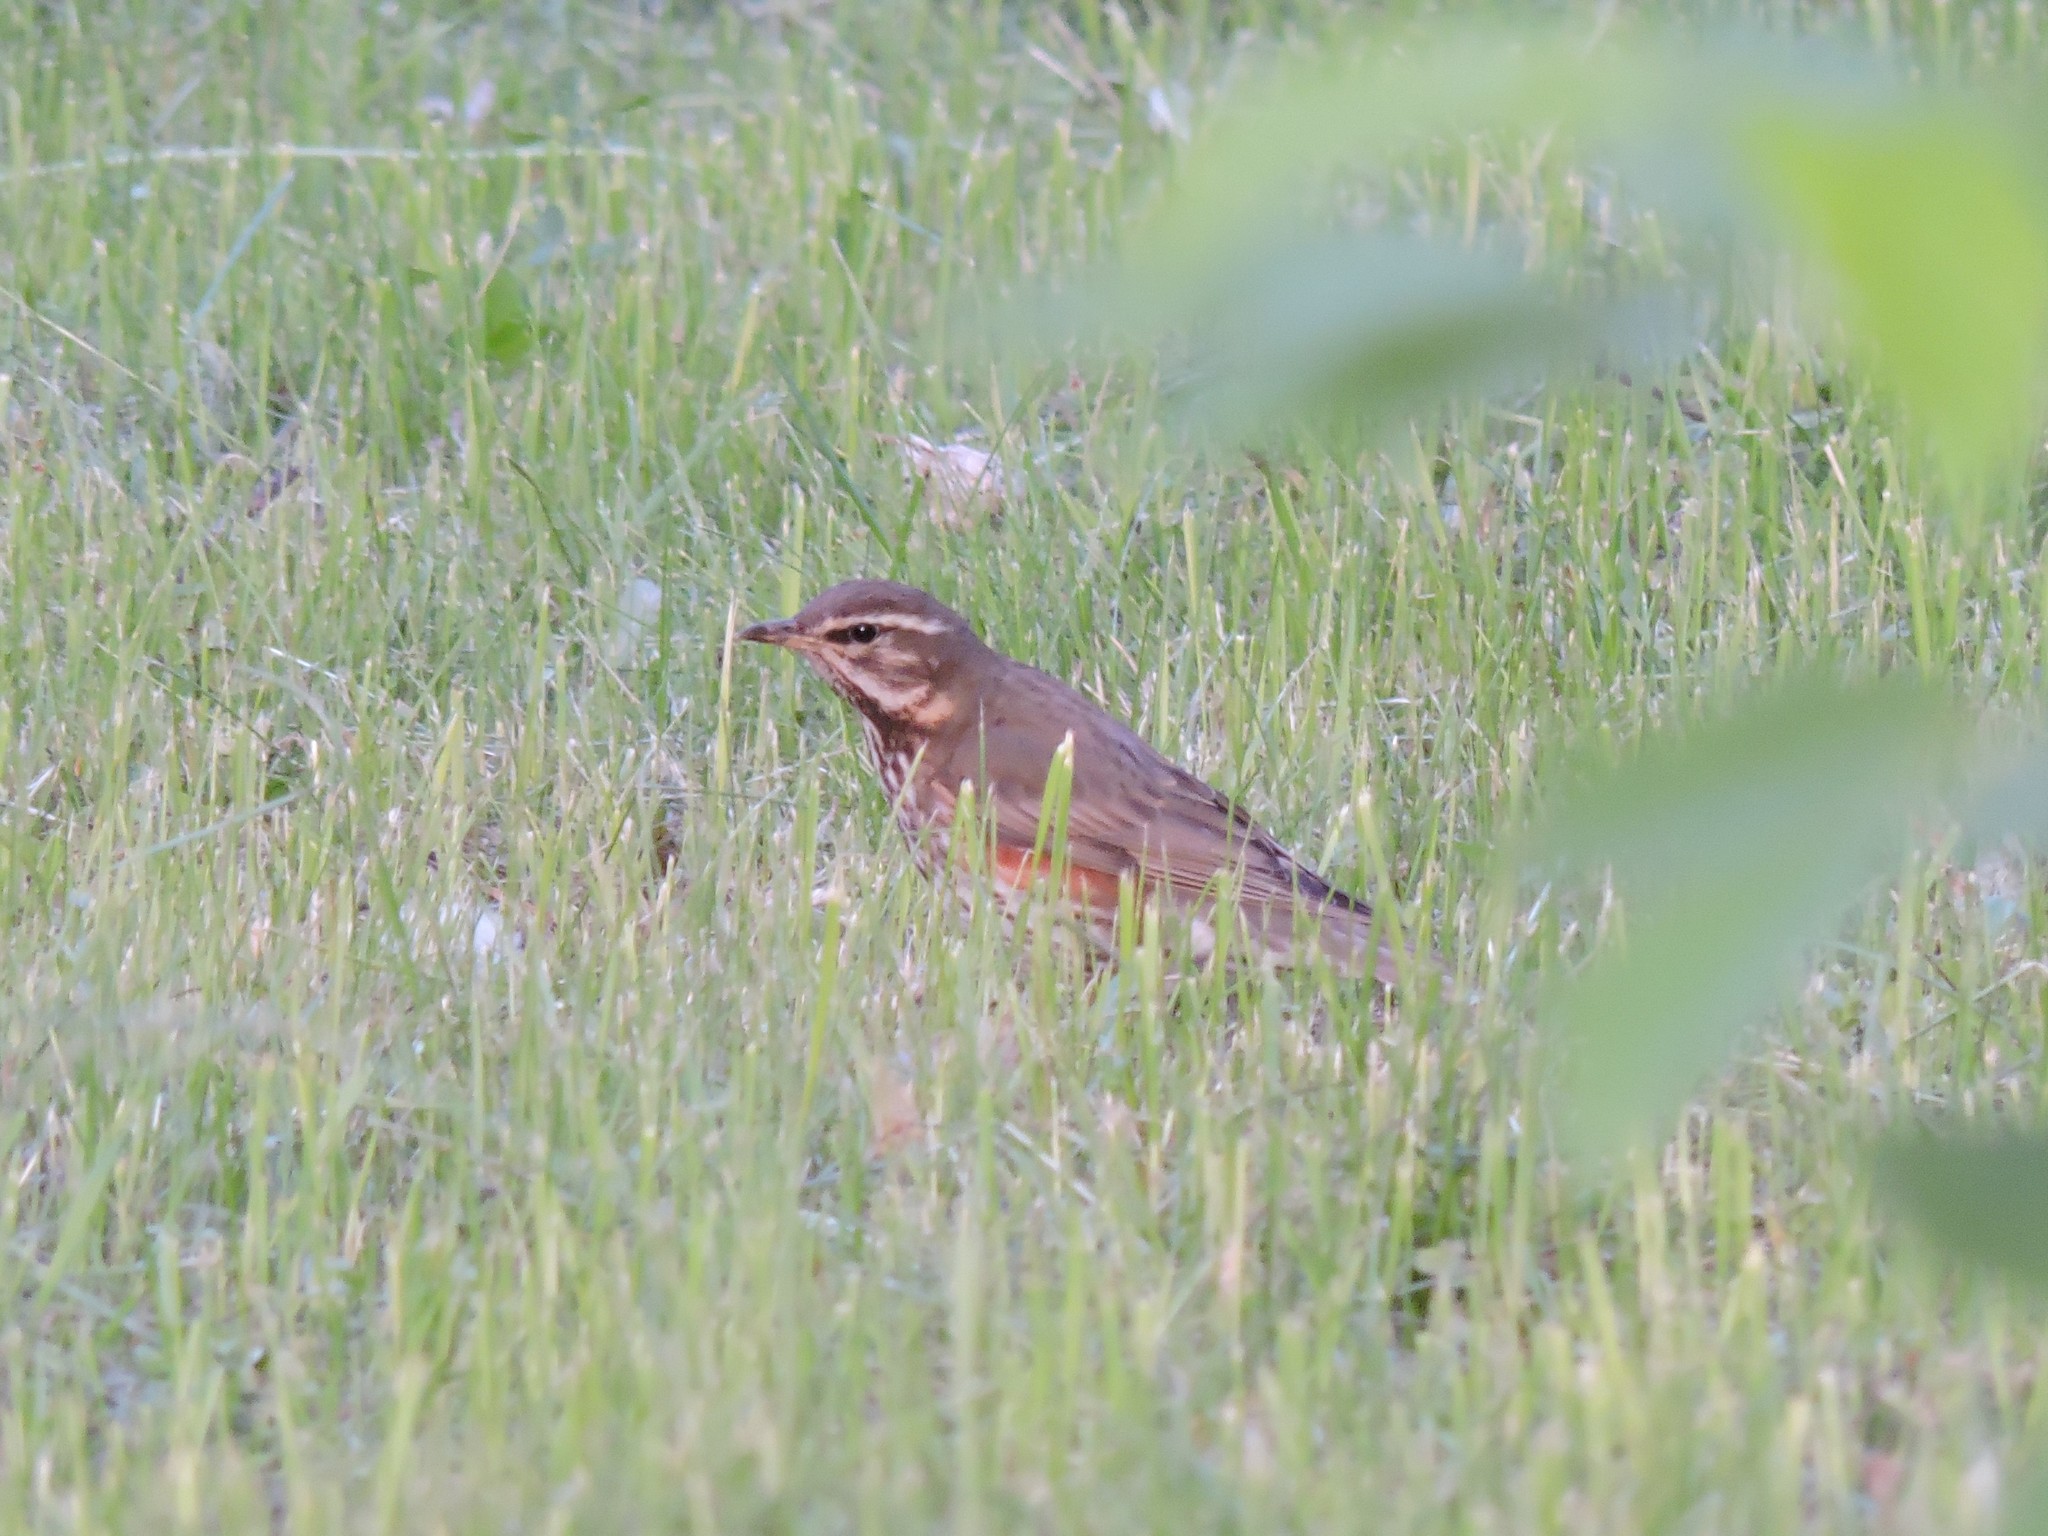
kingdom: Animalia
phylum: Chordata
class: Aves
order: Passeriformes
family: Turdidae
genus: Turdus
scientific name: Turdus iliacus
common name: Redwing
